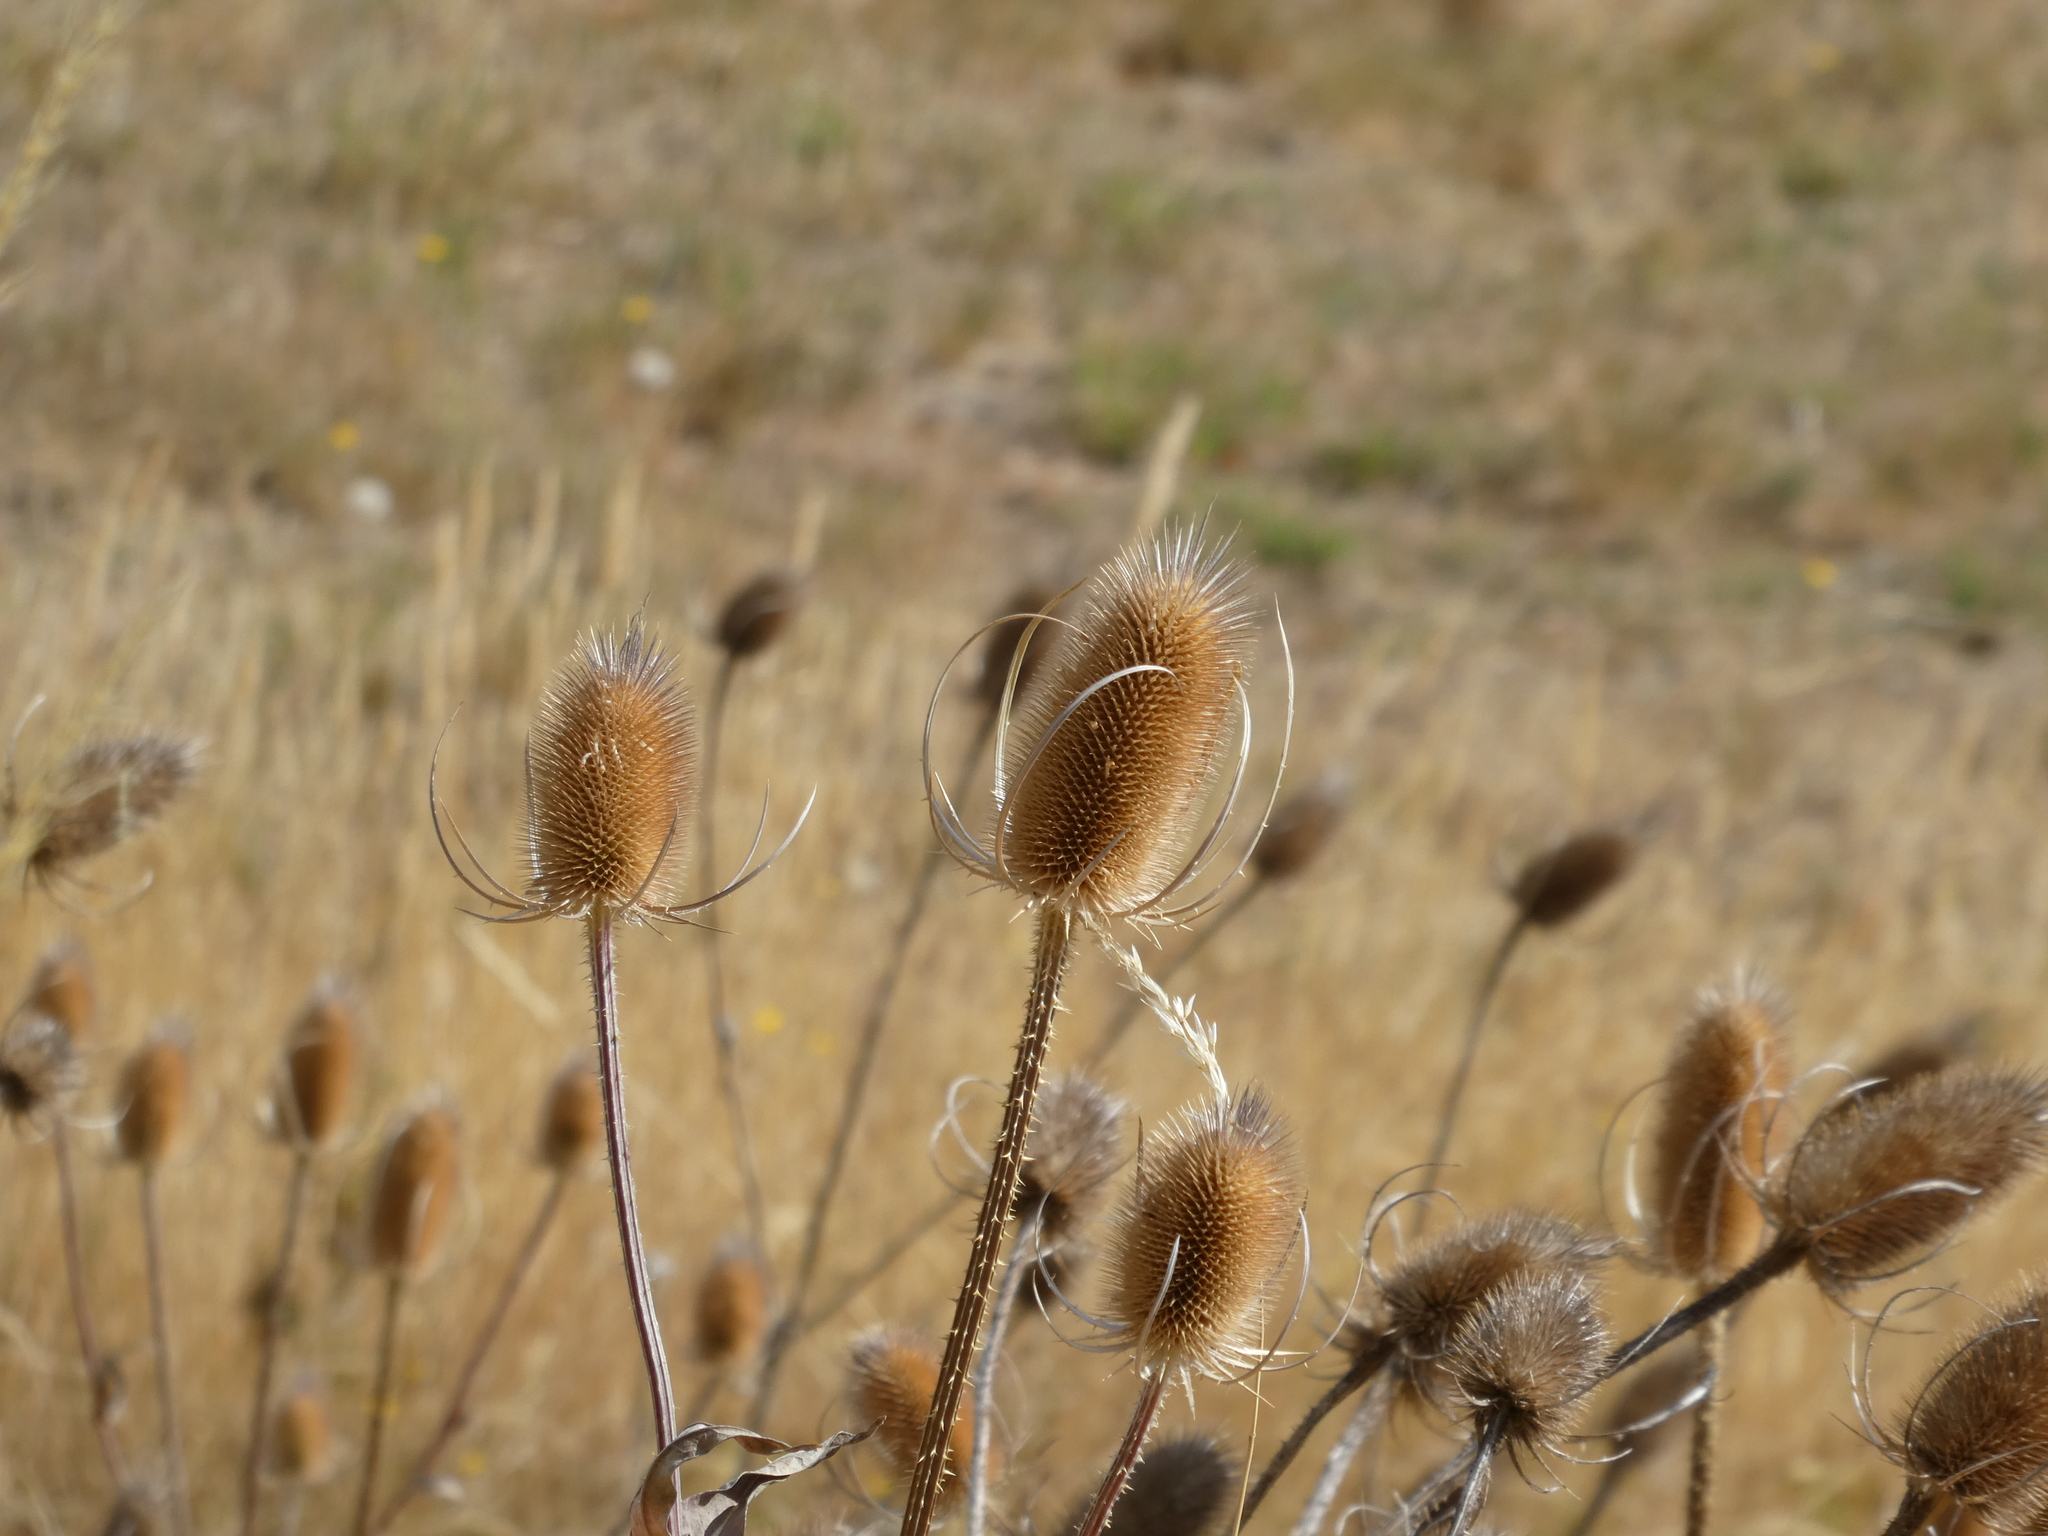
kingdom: Plantae
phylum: Tracheophyta
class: Magnoliopsida
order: Dipsacales
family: Caprifoliaceae
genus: Dipsacus
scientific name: Dipsacus fullonum
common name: Teasel
